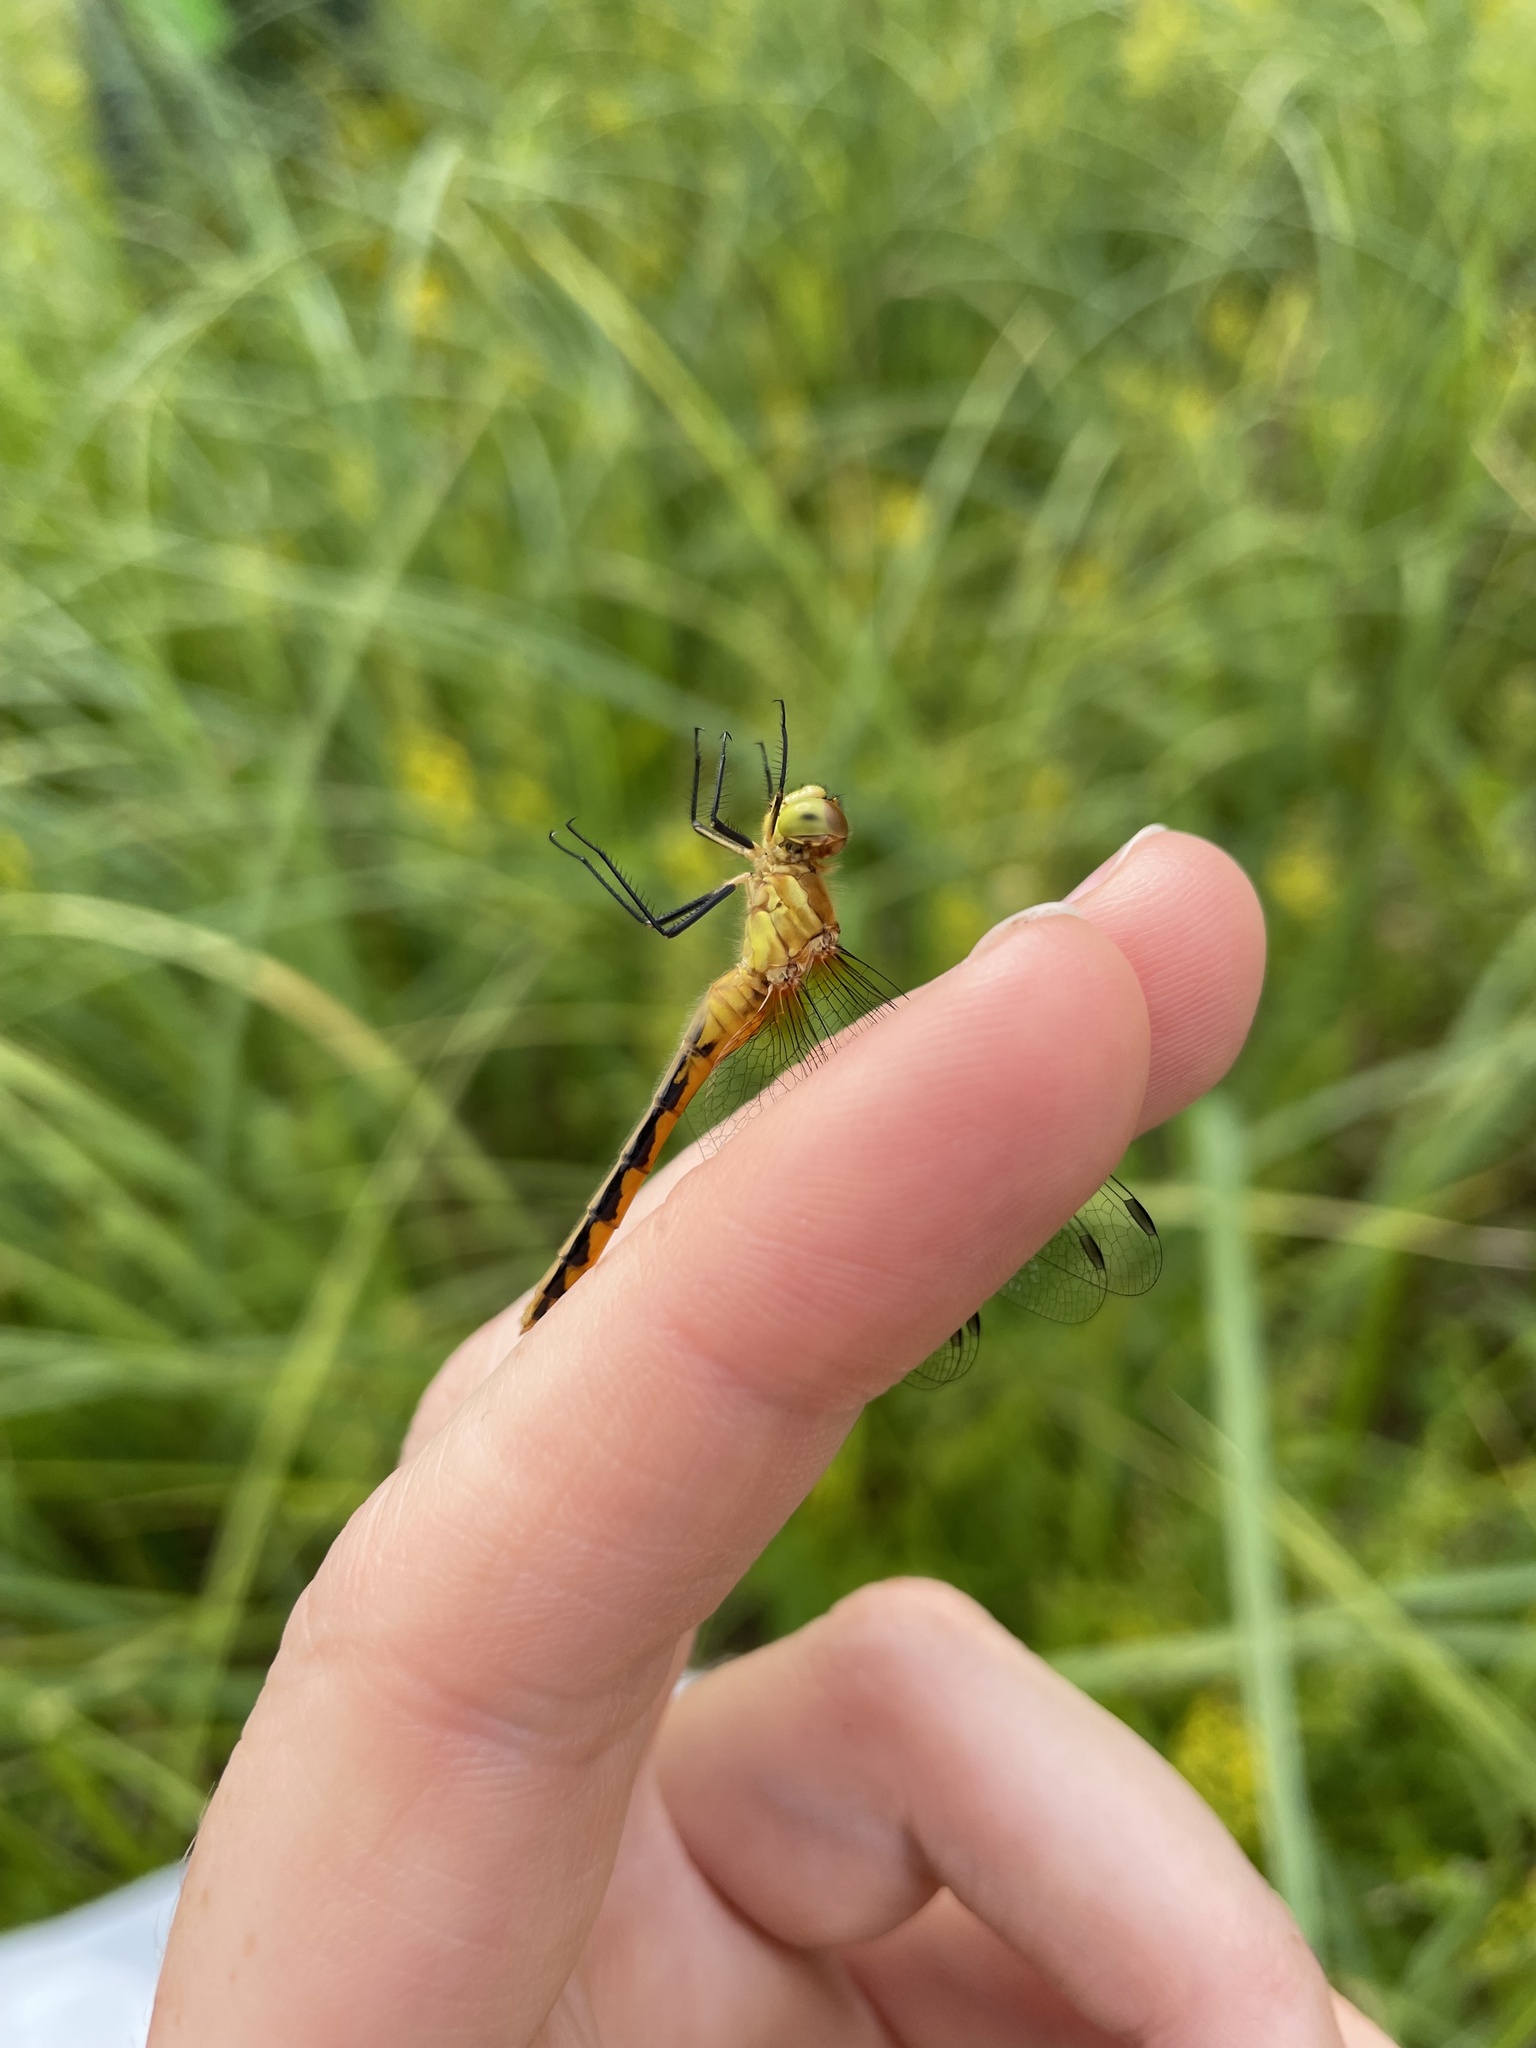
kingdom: Animalia
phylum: Arthropoda
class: Insecta
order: Odonata
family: Libellulidae
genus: Sympetrum
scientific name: Sympetrum obtrusum
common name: White-faced meadowhawk
